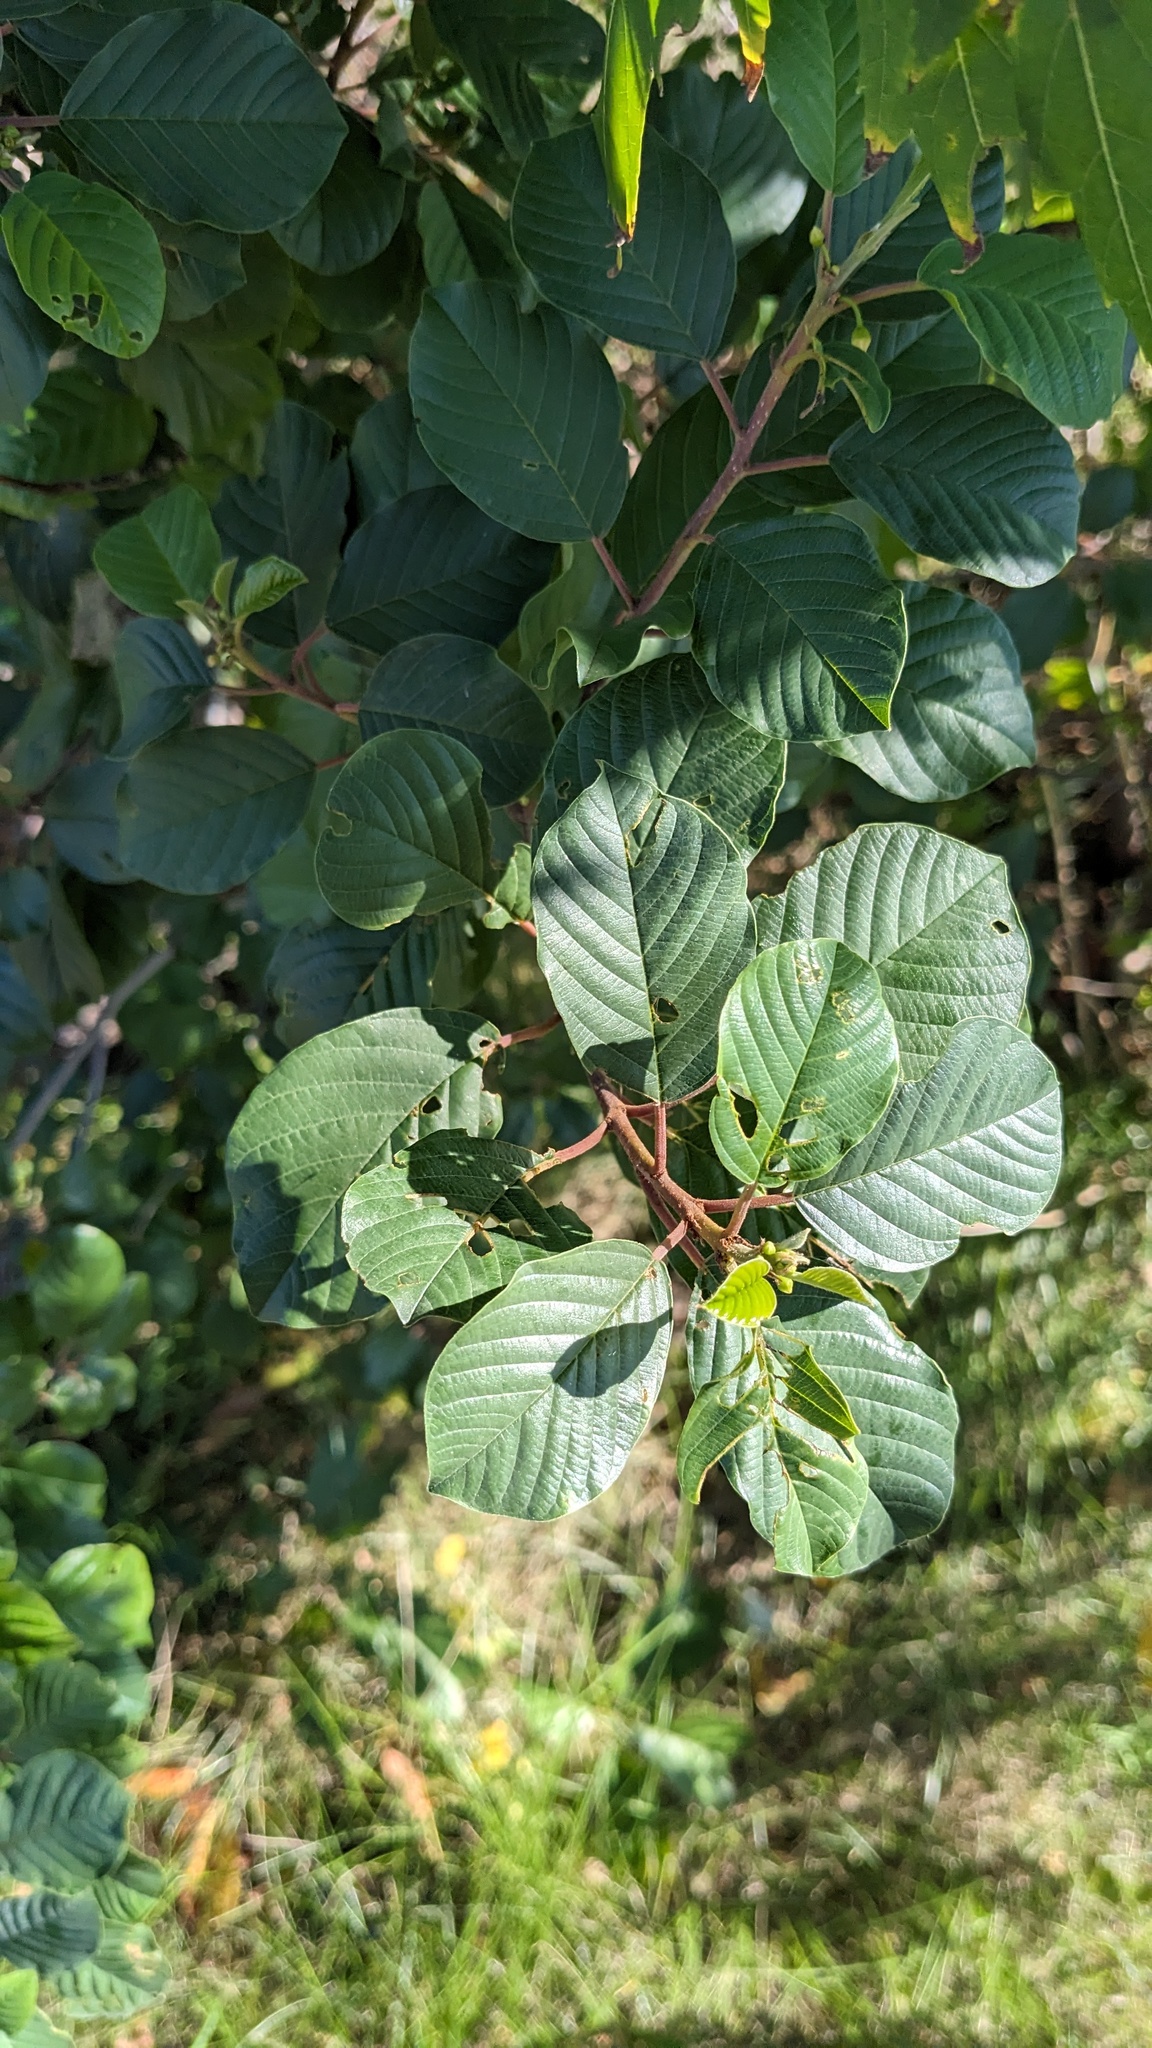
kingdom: Plantae
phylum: Tracheophyta
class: Magnoliopsida
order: Rosales
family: Rhamnaceae
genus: Frangula
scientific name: Frangula alnus
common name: Alder buckthorn
